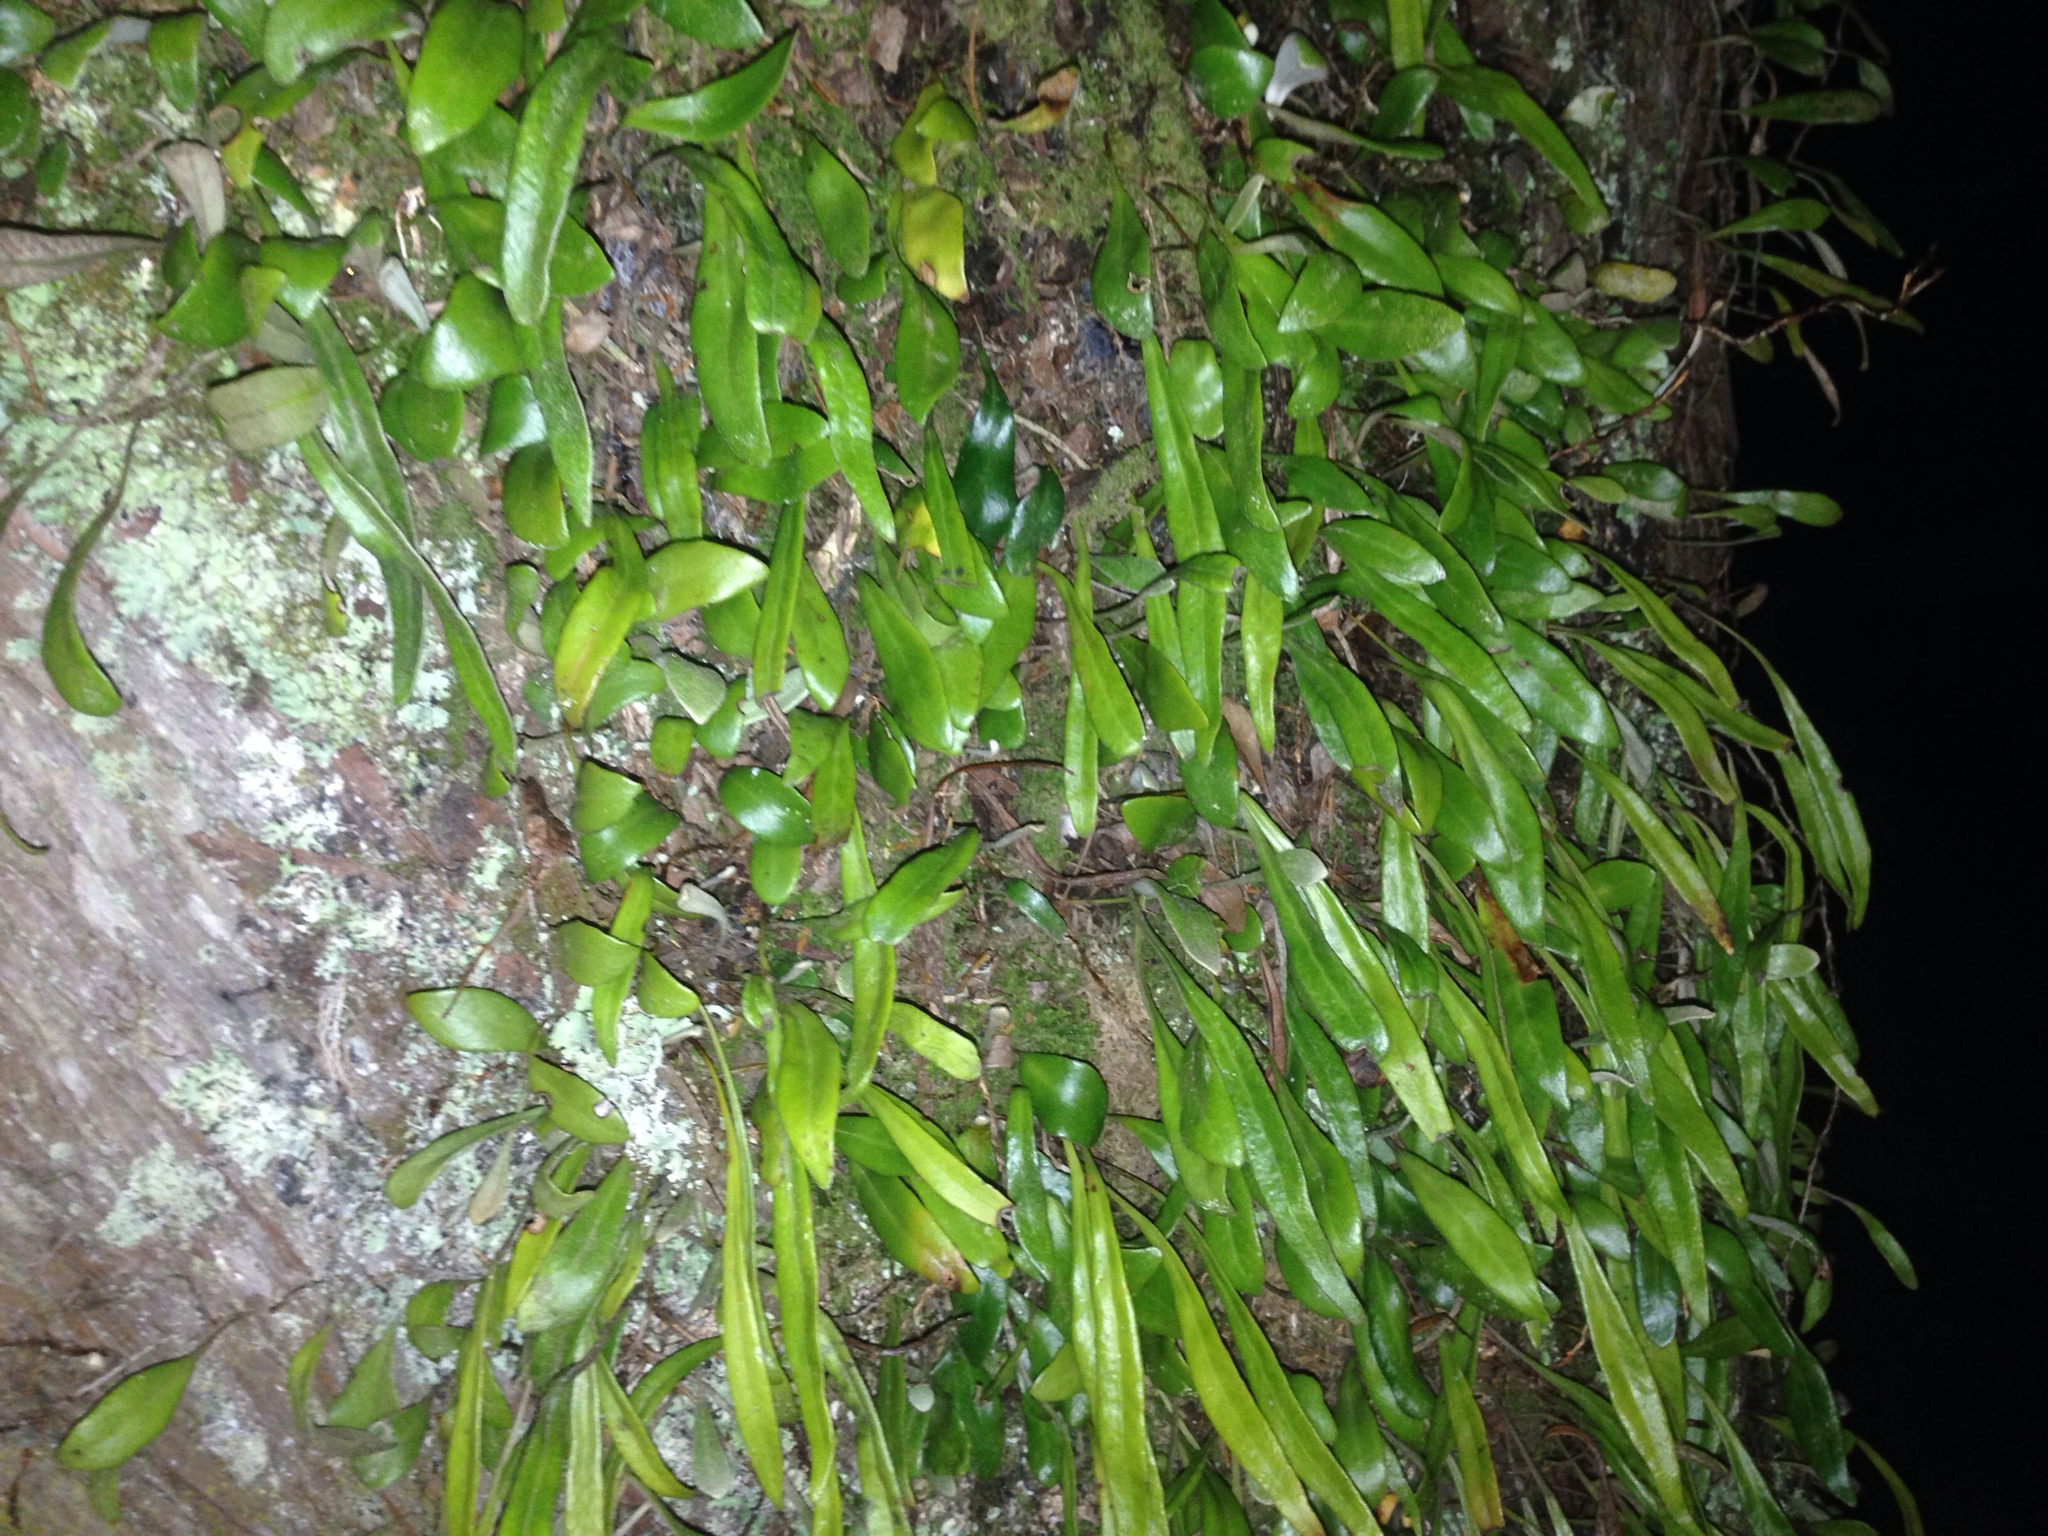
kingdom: Plantae
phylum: Tracheophyta
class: Polypodiopsida
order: Polypodiales
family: Polypodiaceae
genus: Pyrrosia
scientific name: Pyrrosia eleagnifolia
